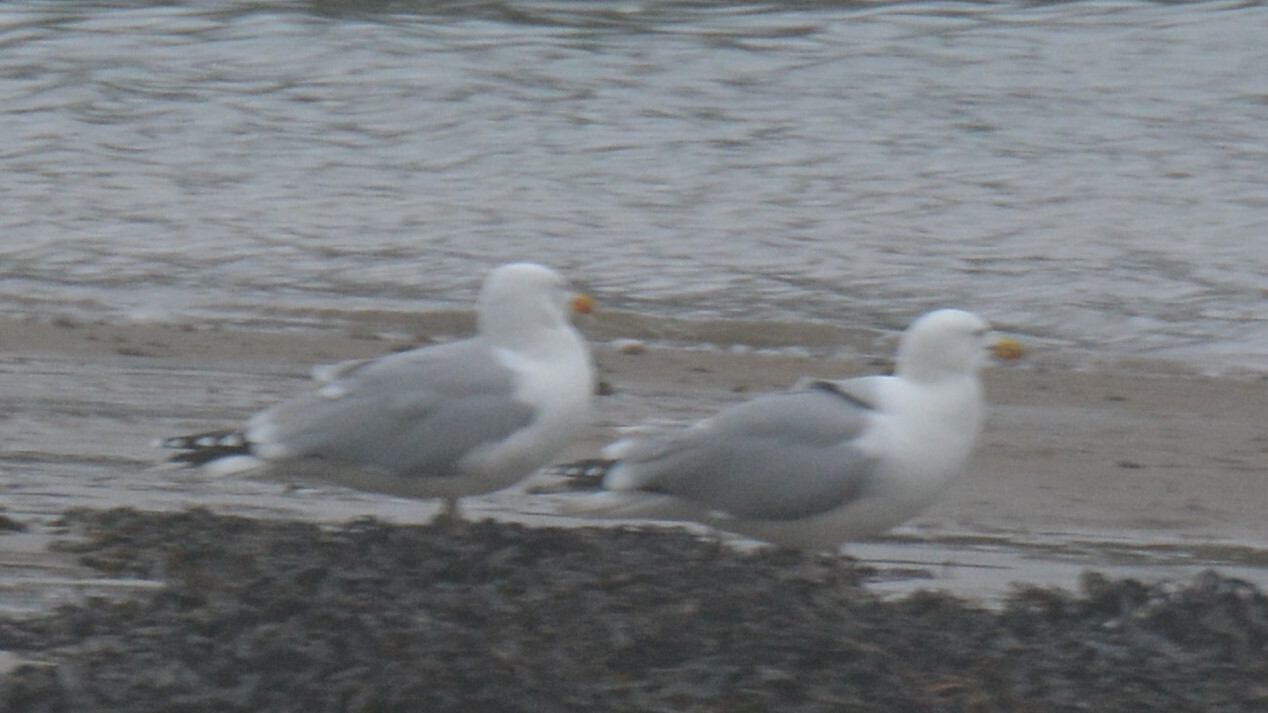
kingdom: Animalia
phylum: Chordata
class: Aves
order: Charadriiformes
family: Laridae
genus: Larus
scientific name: Larus argentatus
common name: Herring gull
